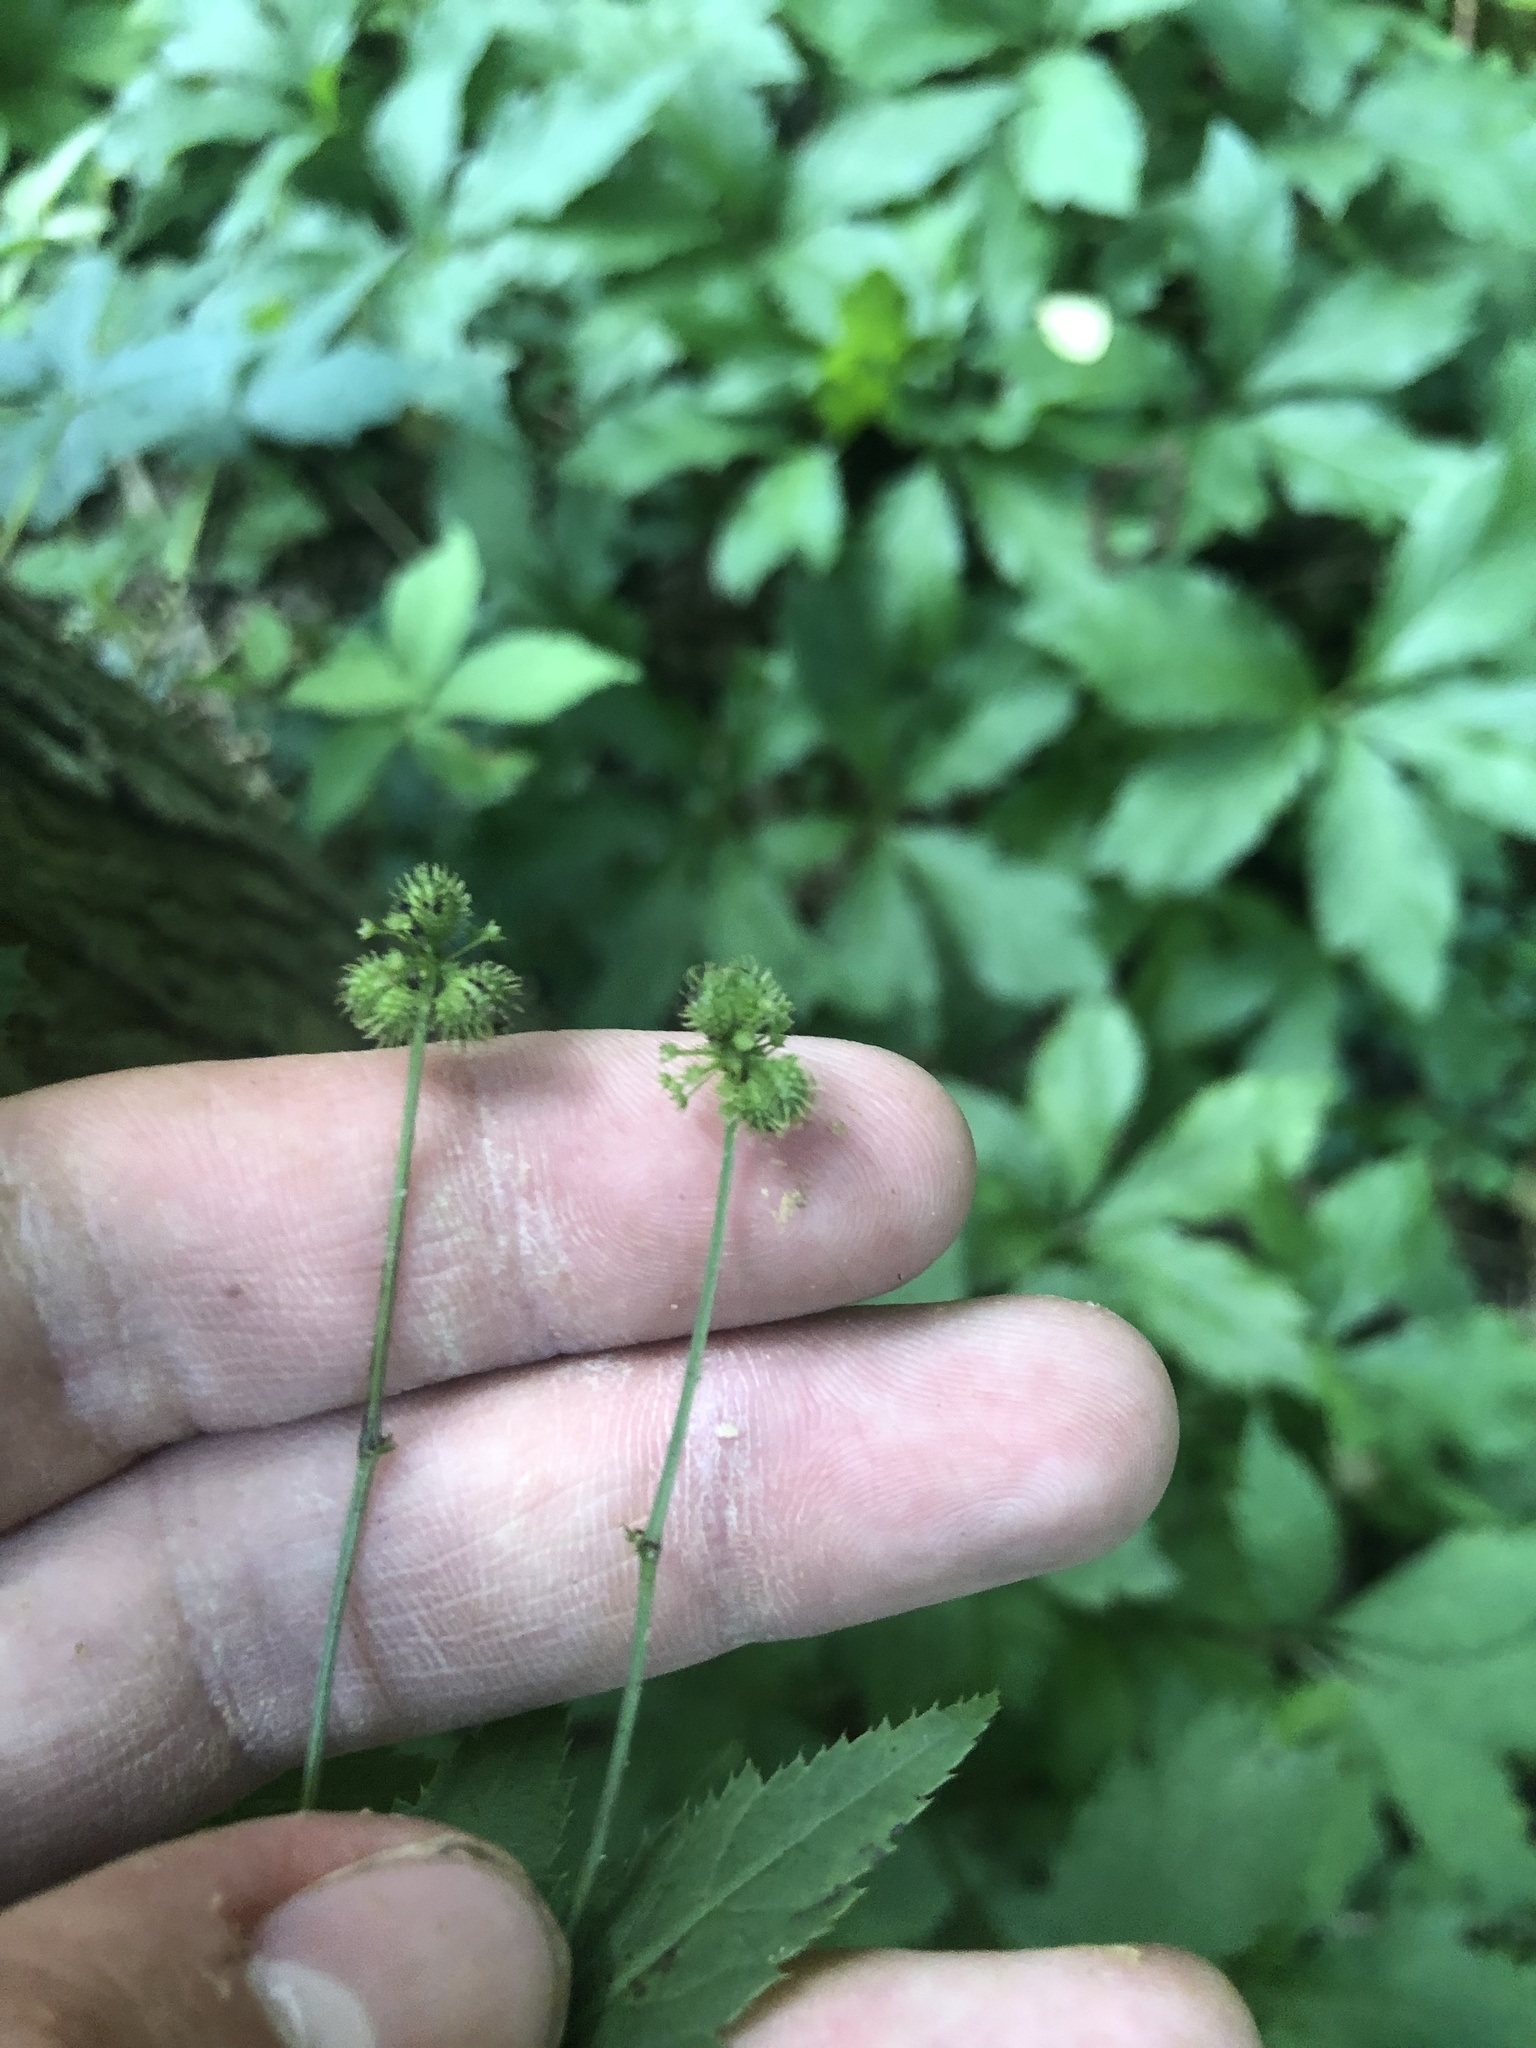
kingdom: Plantae
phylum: Tracheophyta
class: Magnoliopsida
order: Apiales
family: Apiaceae
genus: Sanicula
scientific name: Sanicula odorata
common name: Cluster sanicle
